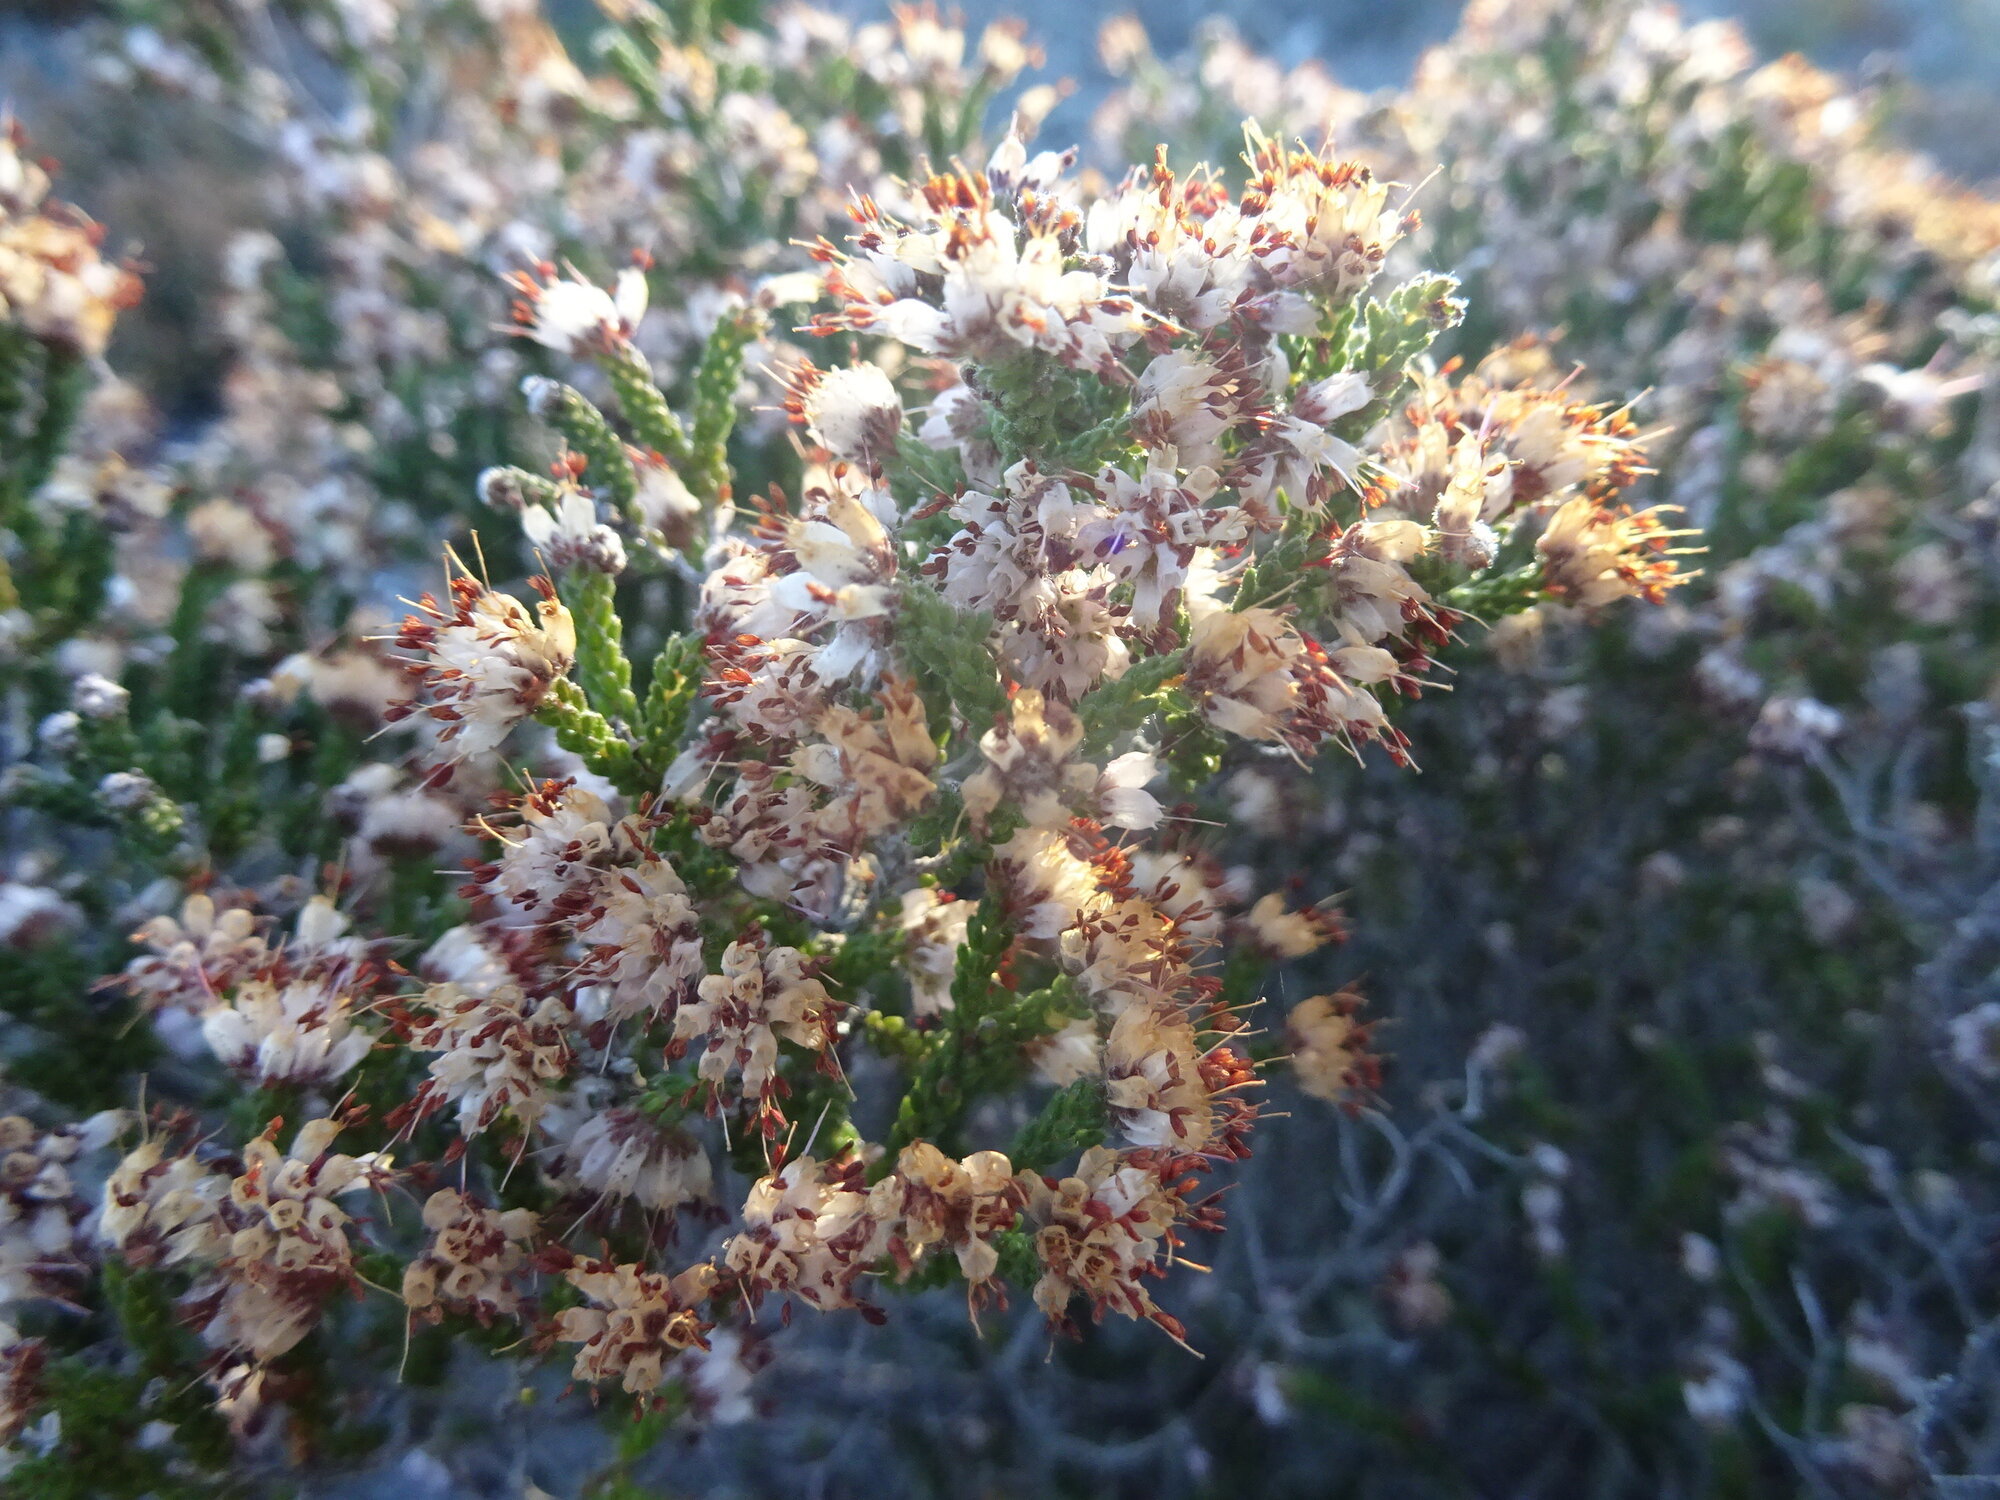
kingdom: Plantae
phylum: Tracheophyta
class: Magnoliopsida
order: Ericales
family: Ericaceae
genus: Erica
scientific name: Erica ericoides
